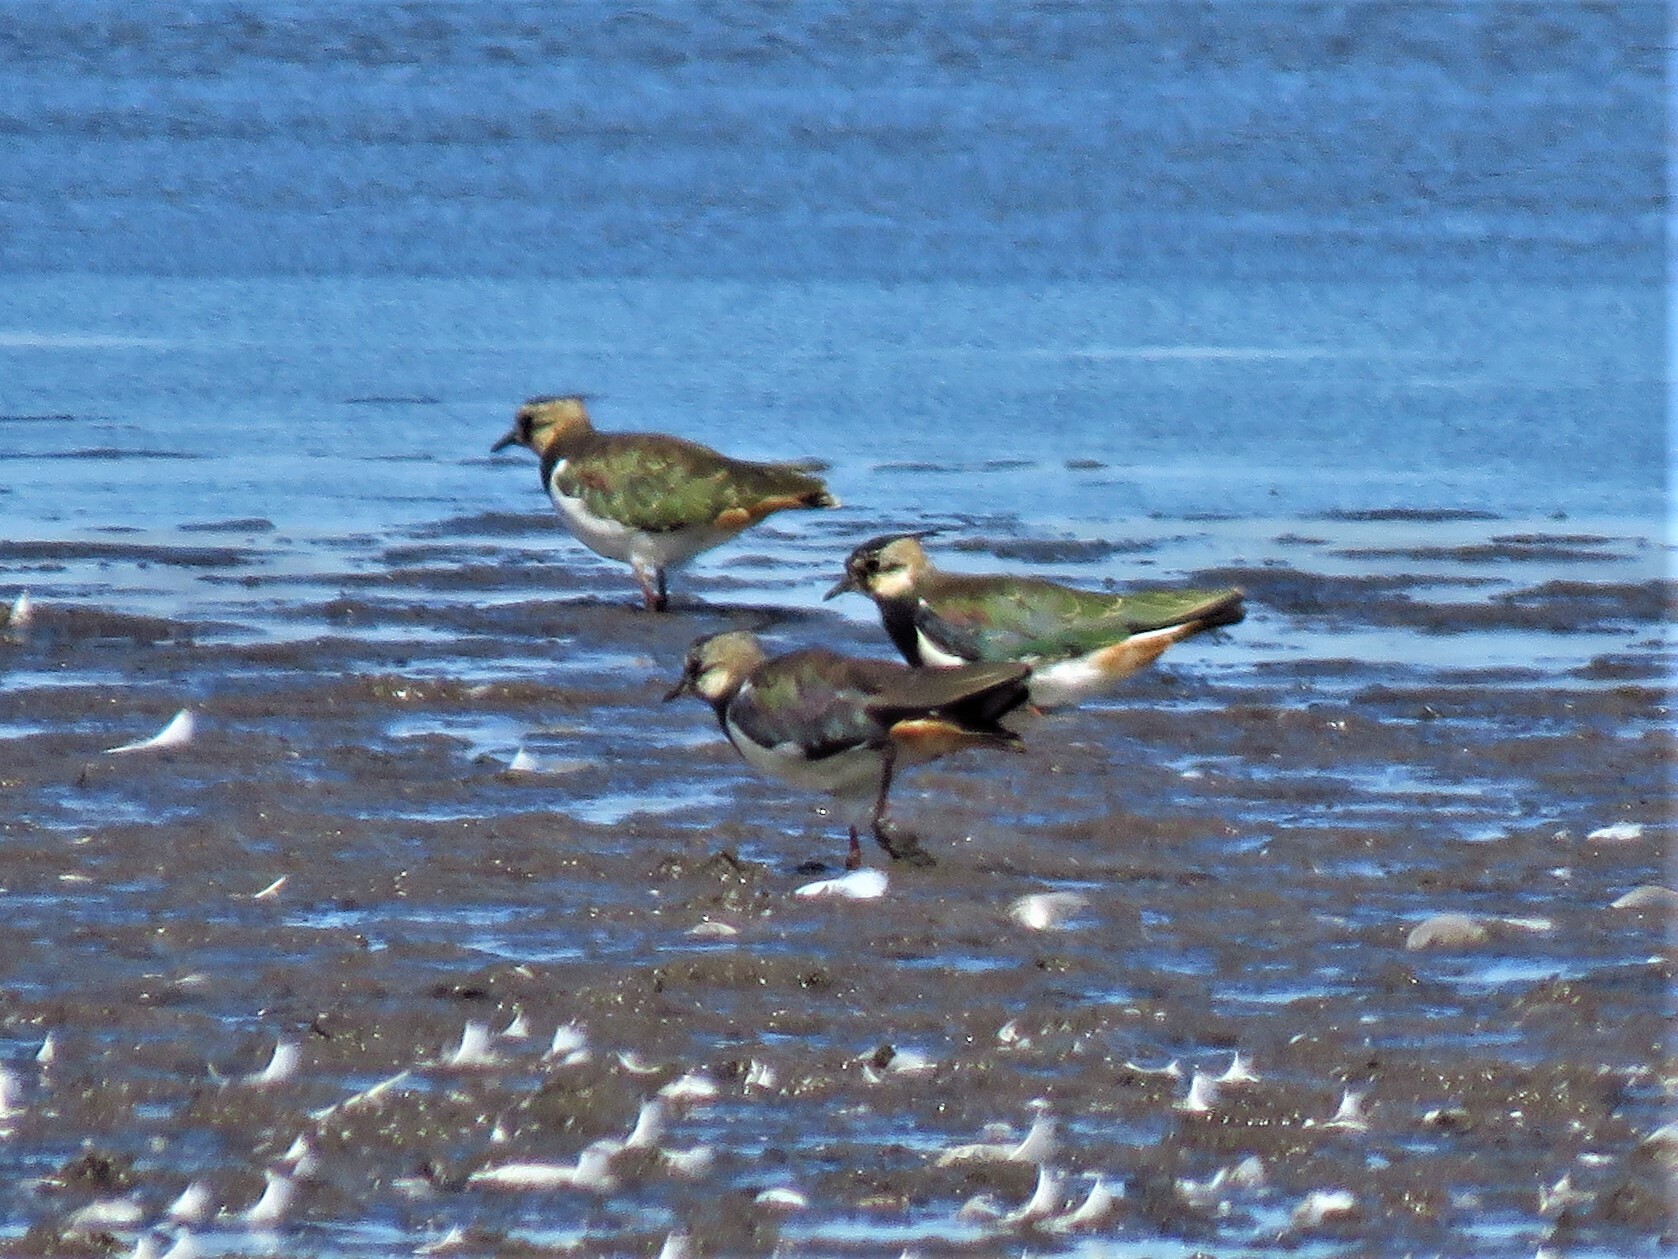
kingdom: Animalia
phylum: Chordata
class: Aves
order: Charadriiformes
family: Charadriidae
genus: Vanellus
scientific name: Vanellus vanellus
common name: Northern lapwing
